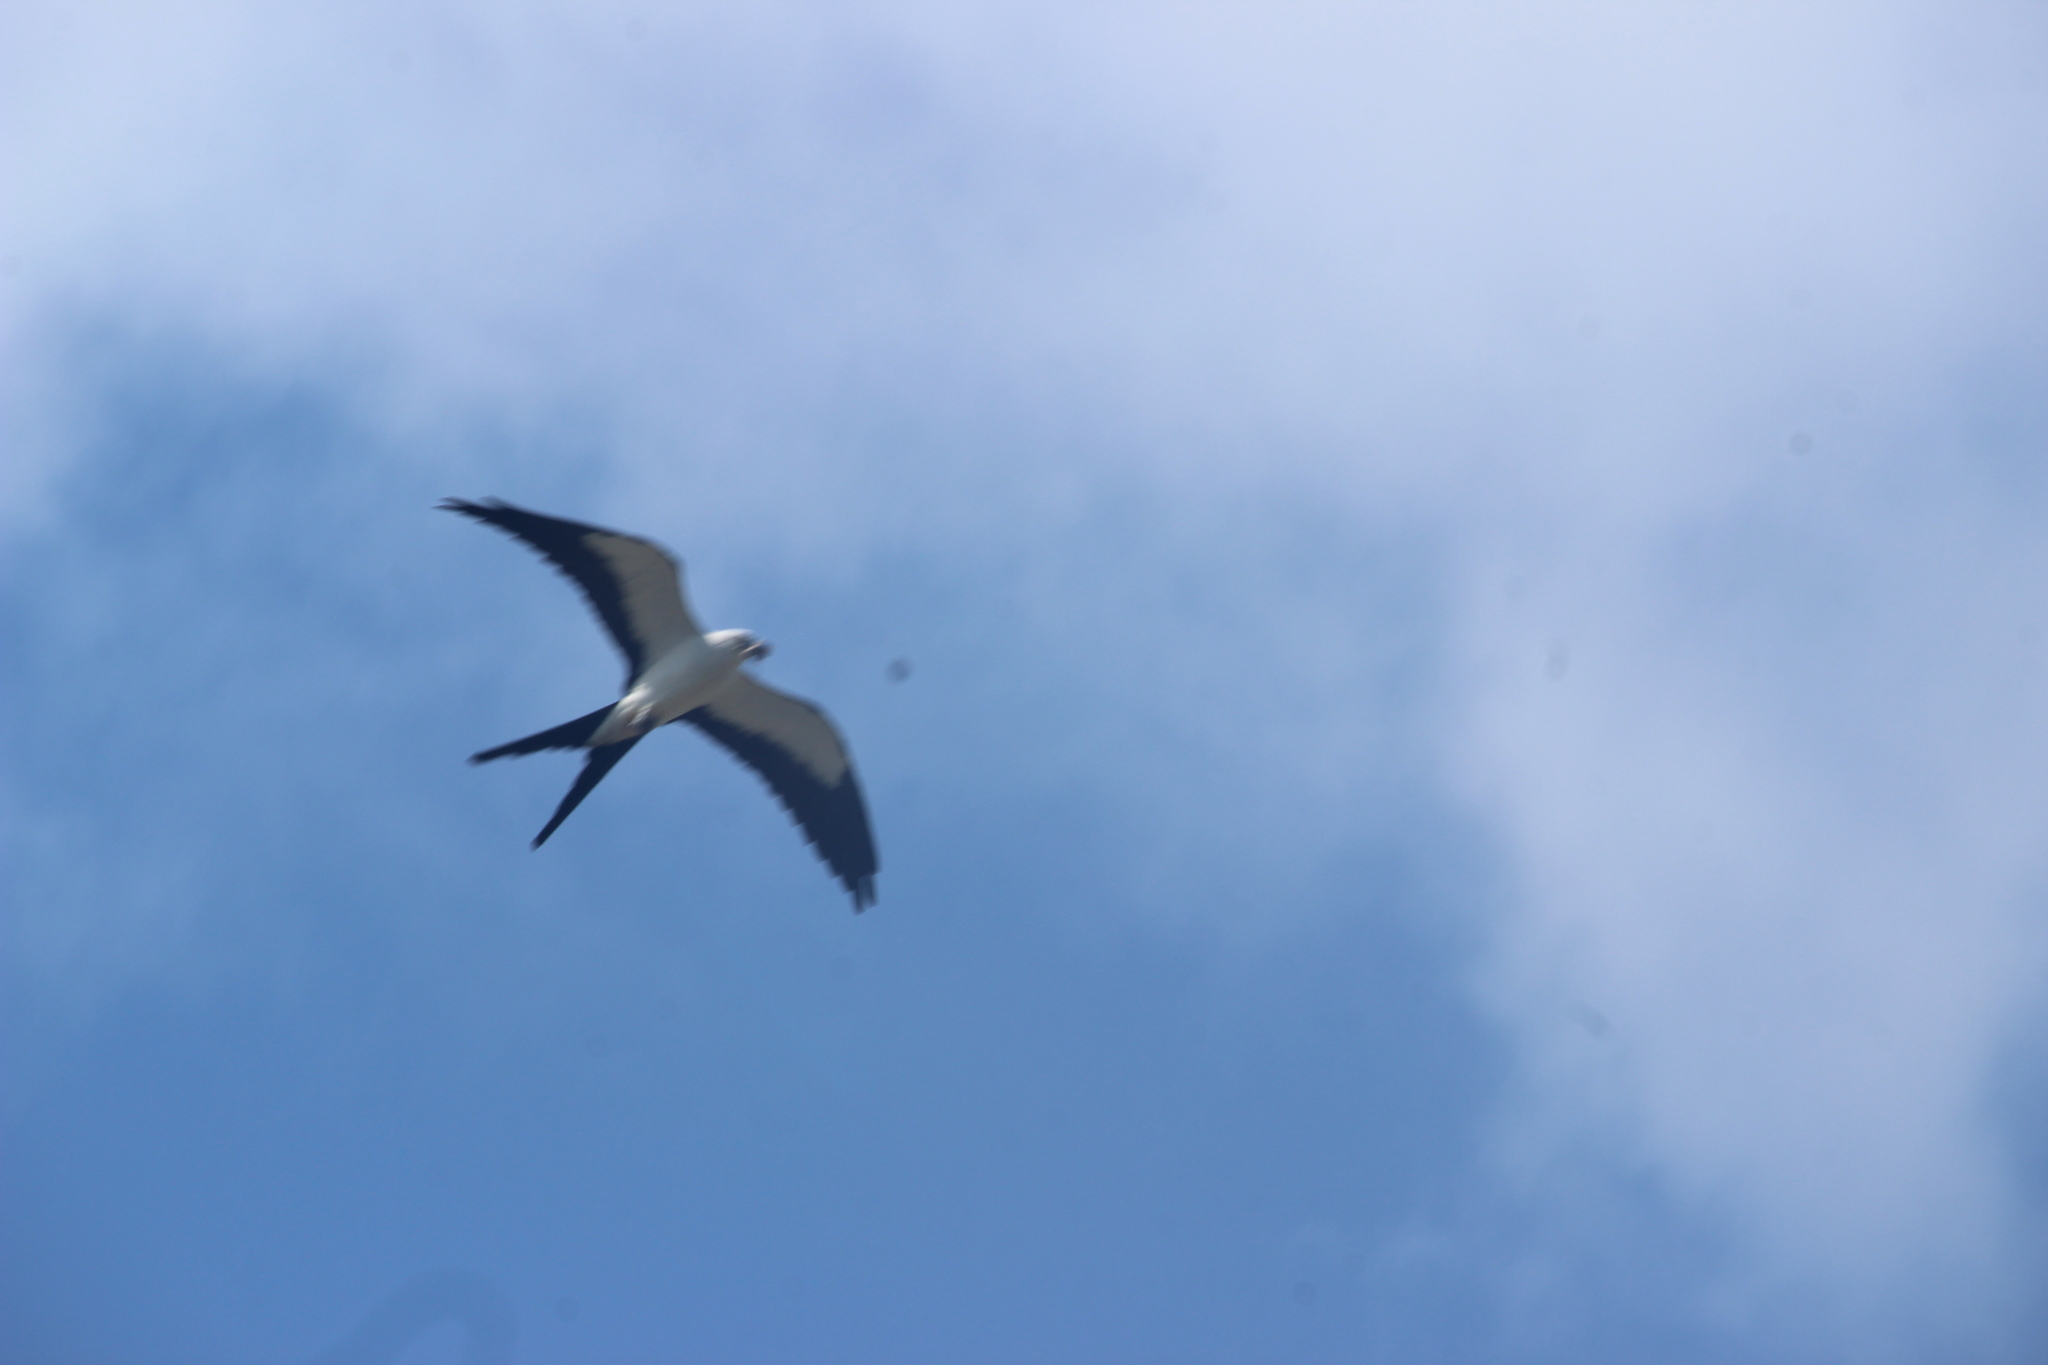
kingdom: Animalia
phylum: Chordata
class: Aves
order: Accipitriformes
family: Accipitridae
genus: Elanoides
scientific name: Elanoides forficatus
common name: Swallow-tailed kite
